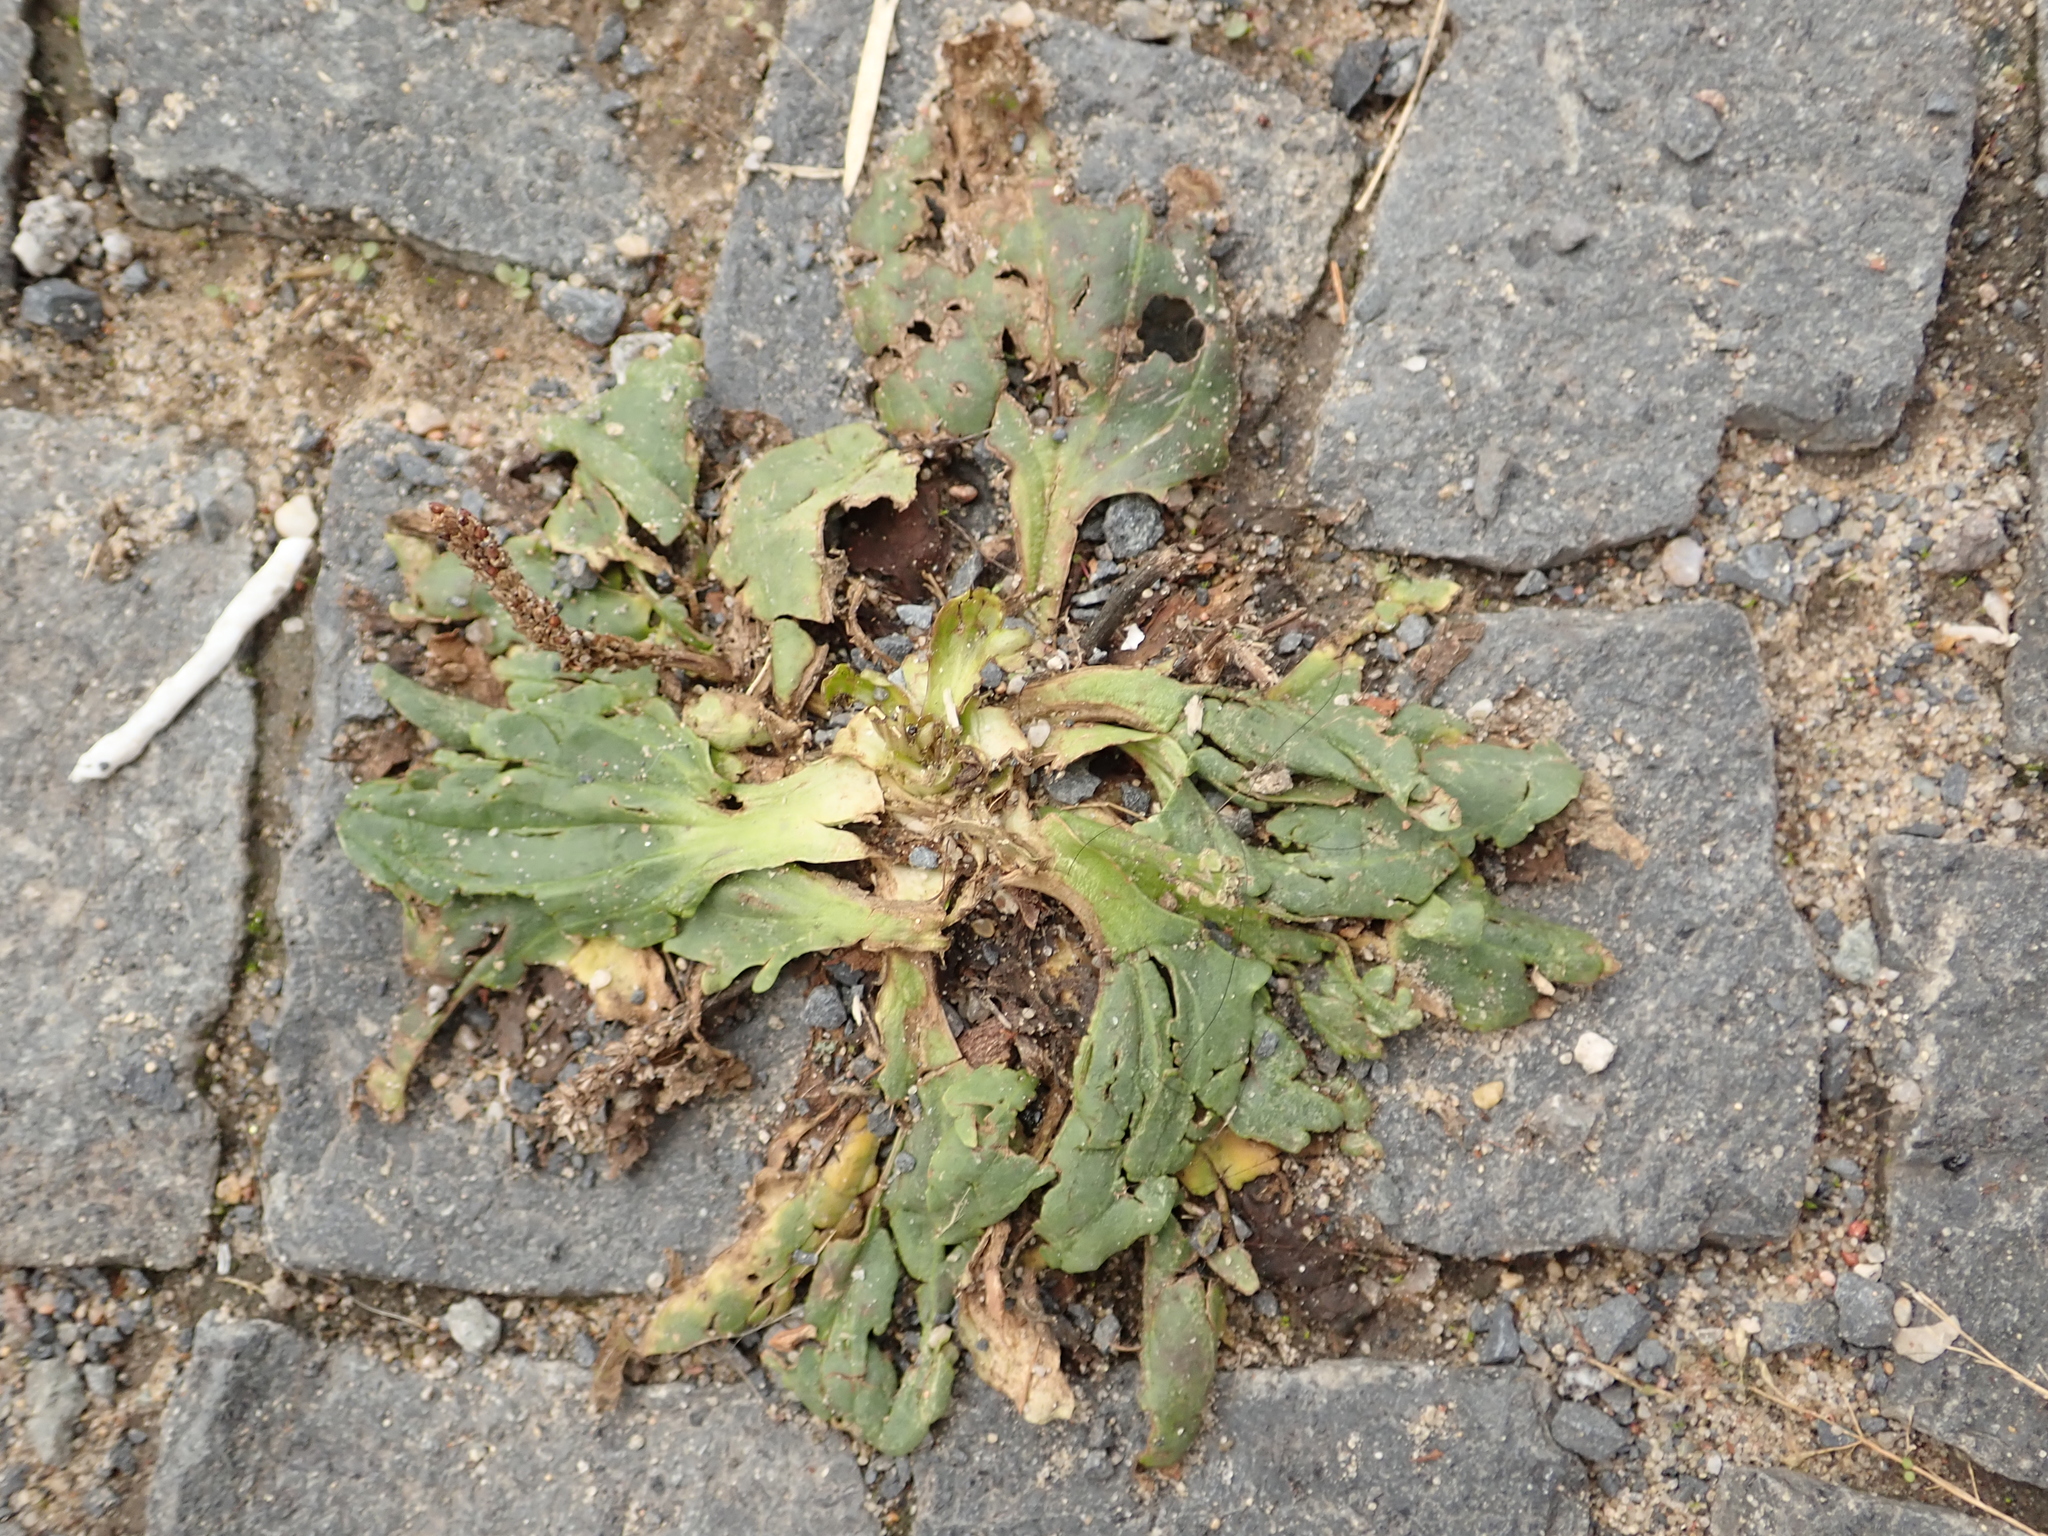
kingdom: Plantae
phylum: Tracheophyta
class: Magnoliopsida
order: Lamiales
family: Plantaginaceae
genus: Plantago
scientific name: Plantago major
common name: Common plantain
